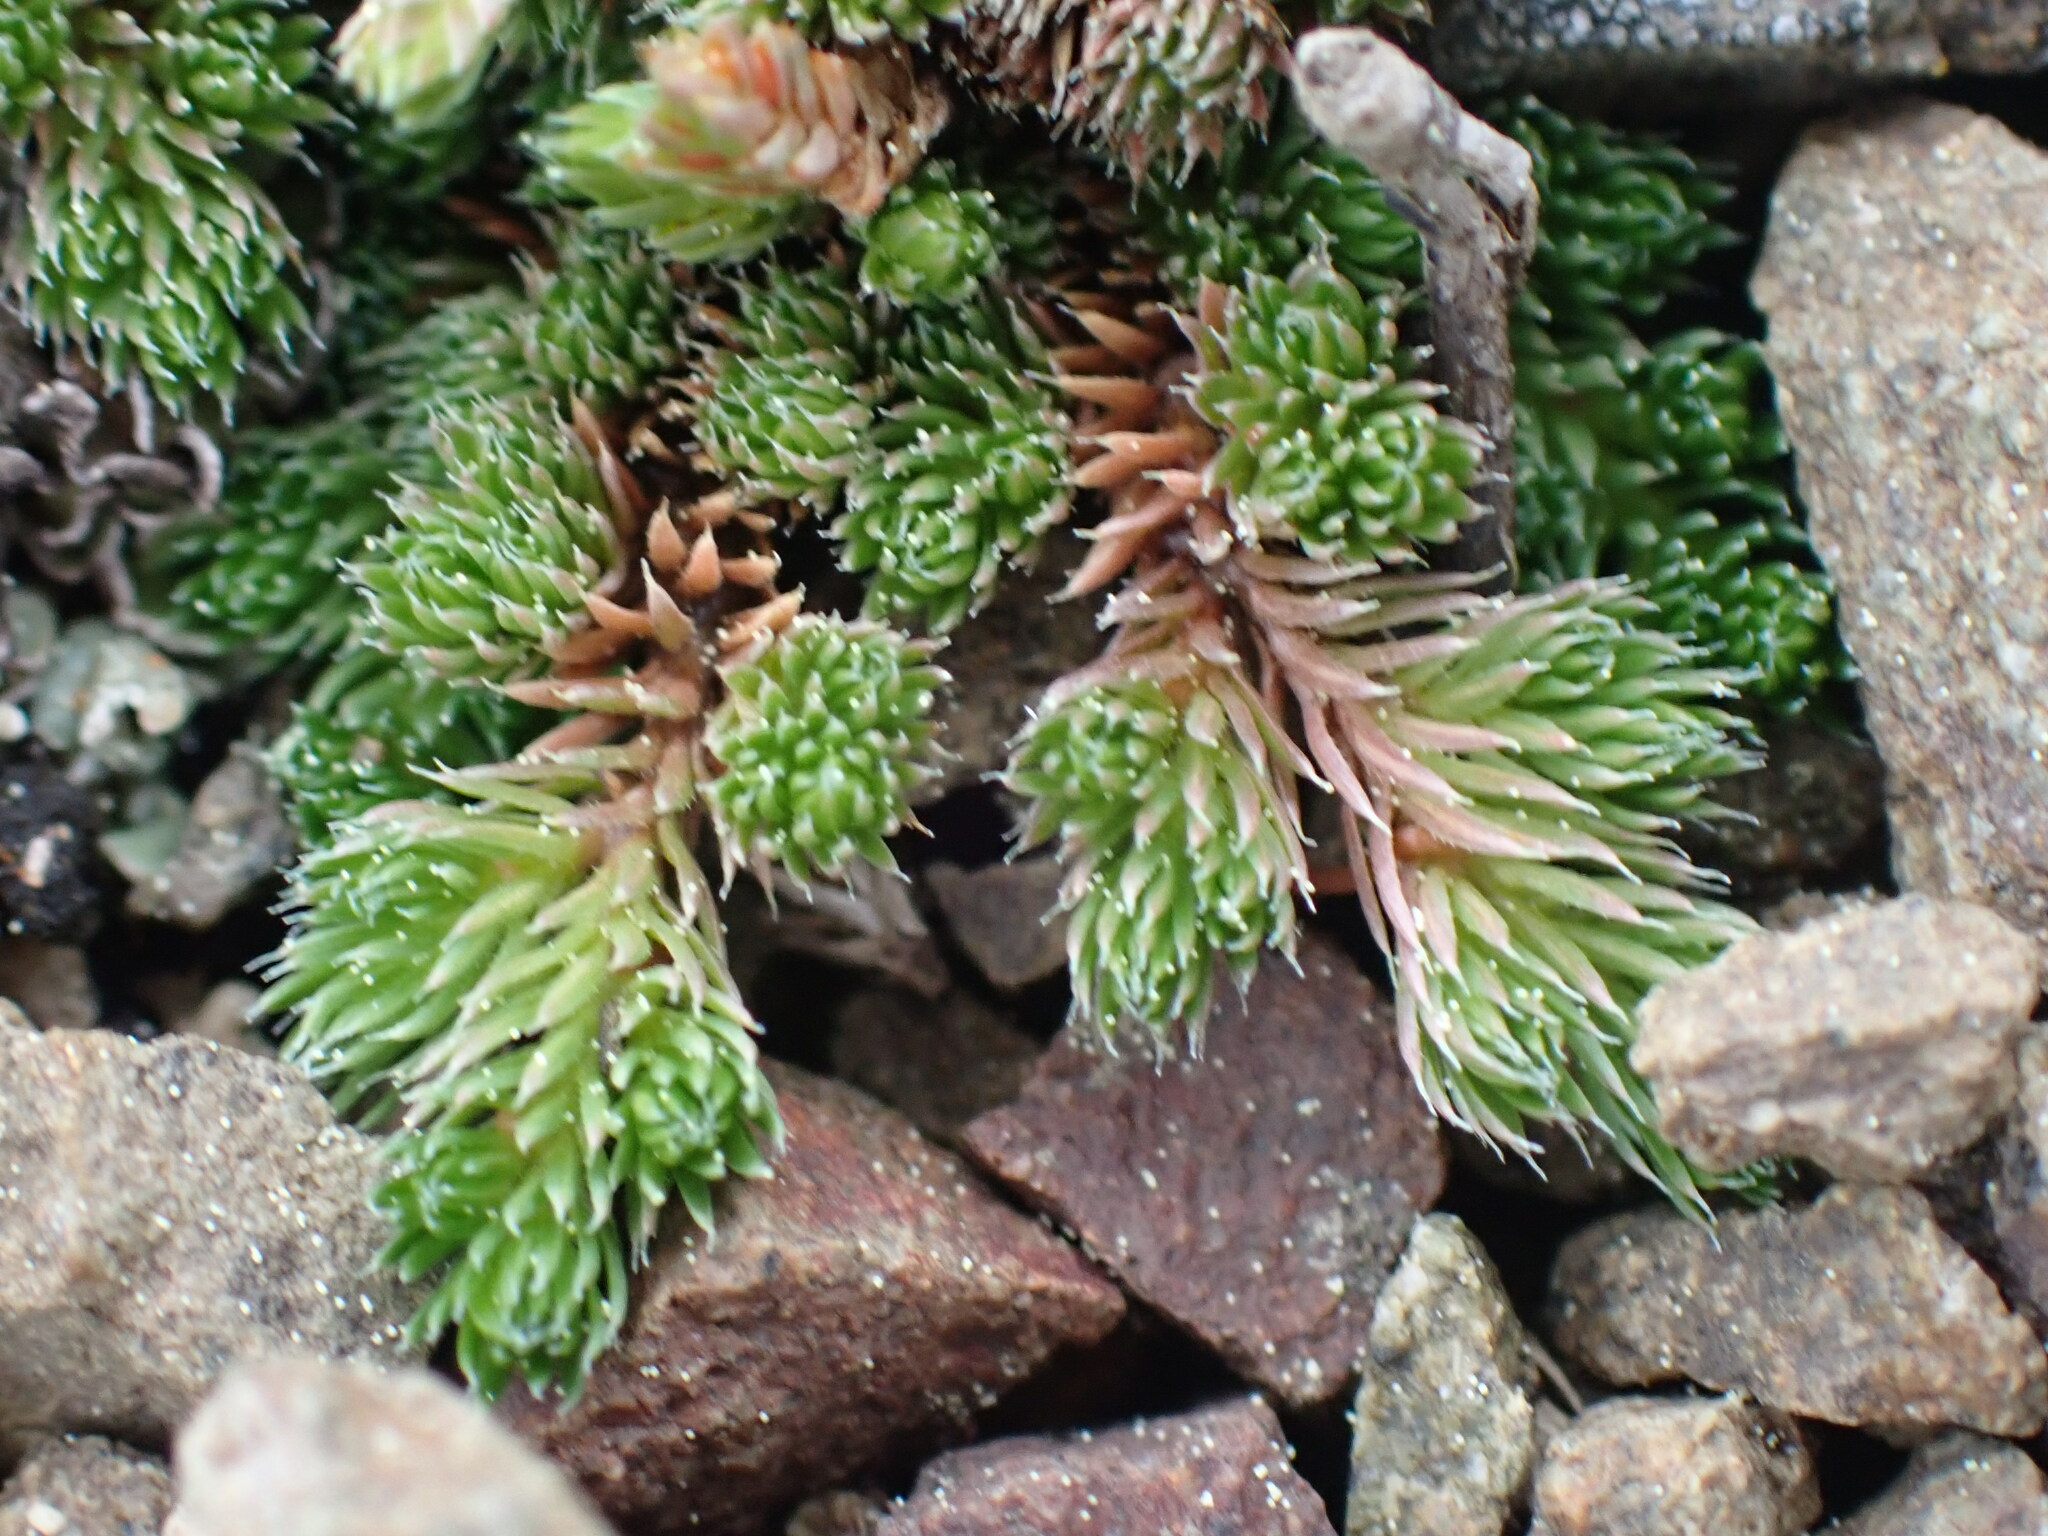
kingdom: Plantae
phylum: Tracheophyta
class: Lycopodiopsida
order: Selaginellales
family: Selaginellaceae
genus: Selaginella
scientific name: Selaginella densa
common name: Mountain spike-moss
